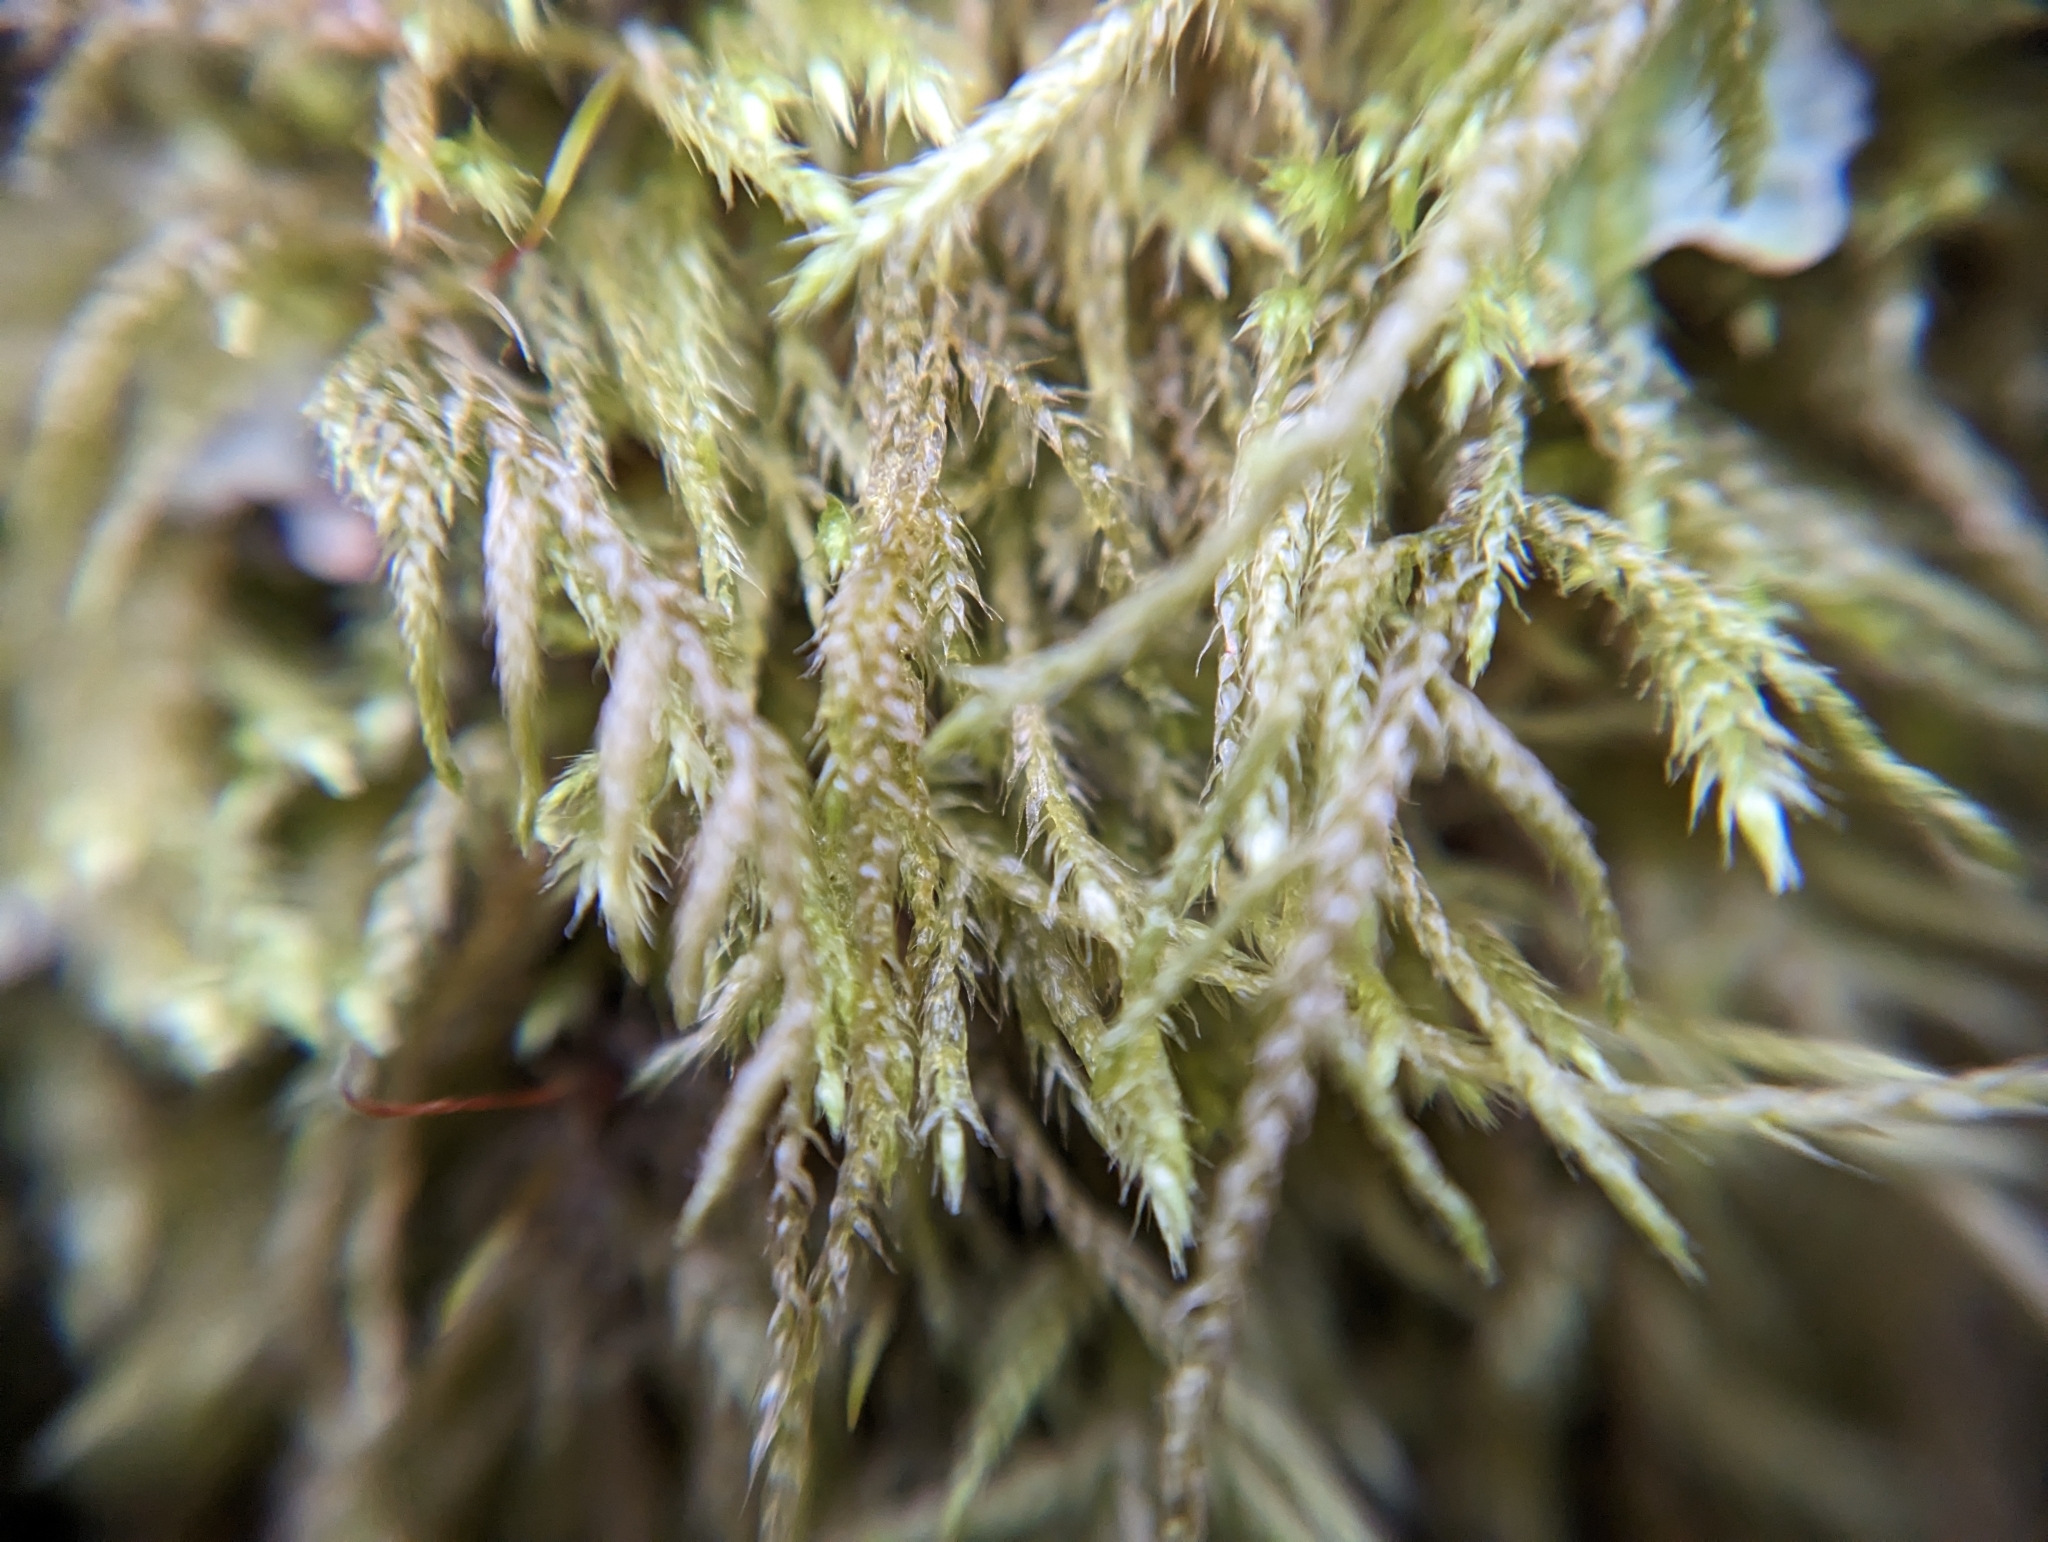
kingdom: Plantae
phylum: Bryophyta
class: Bryopsida
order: Hypnales
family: Lembophyllaceae
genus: Pseudisothecium
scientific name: Pseudisothecium stoloniferum
